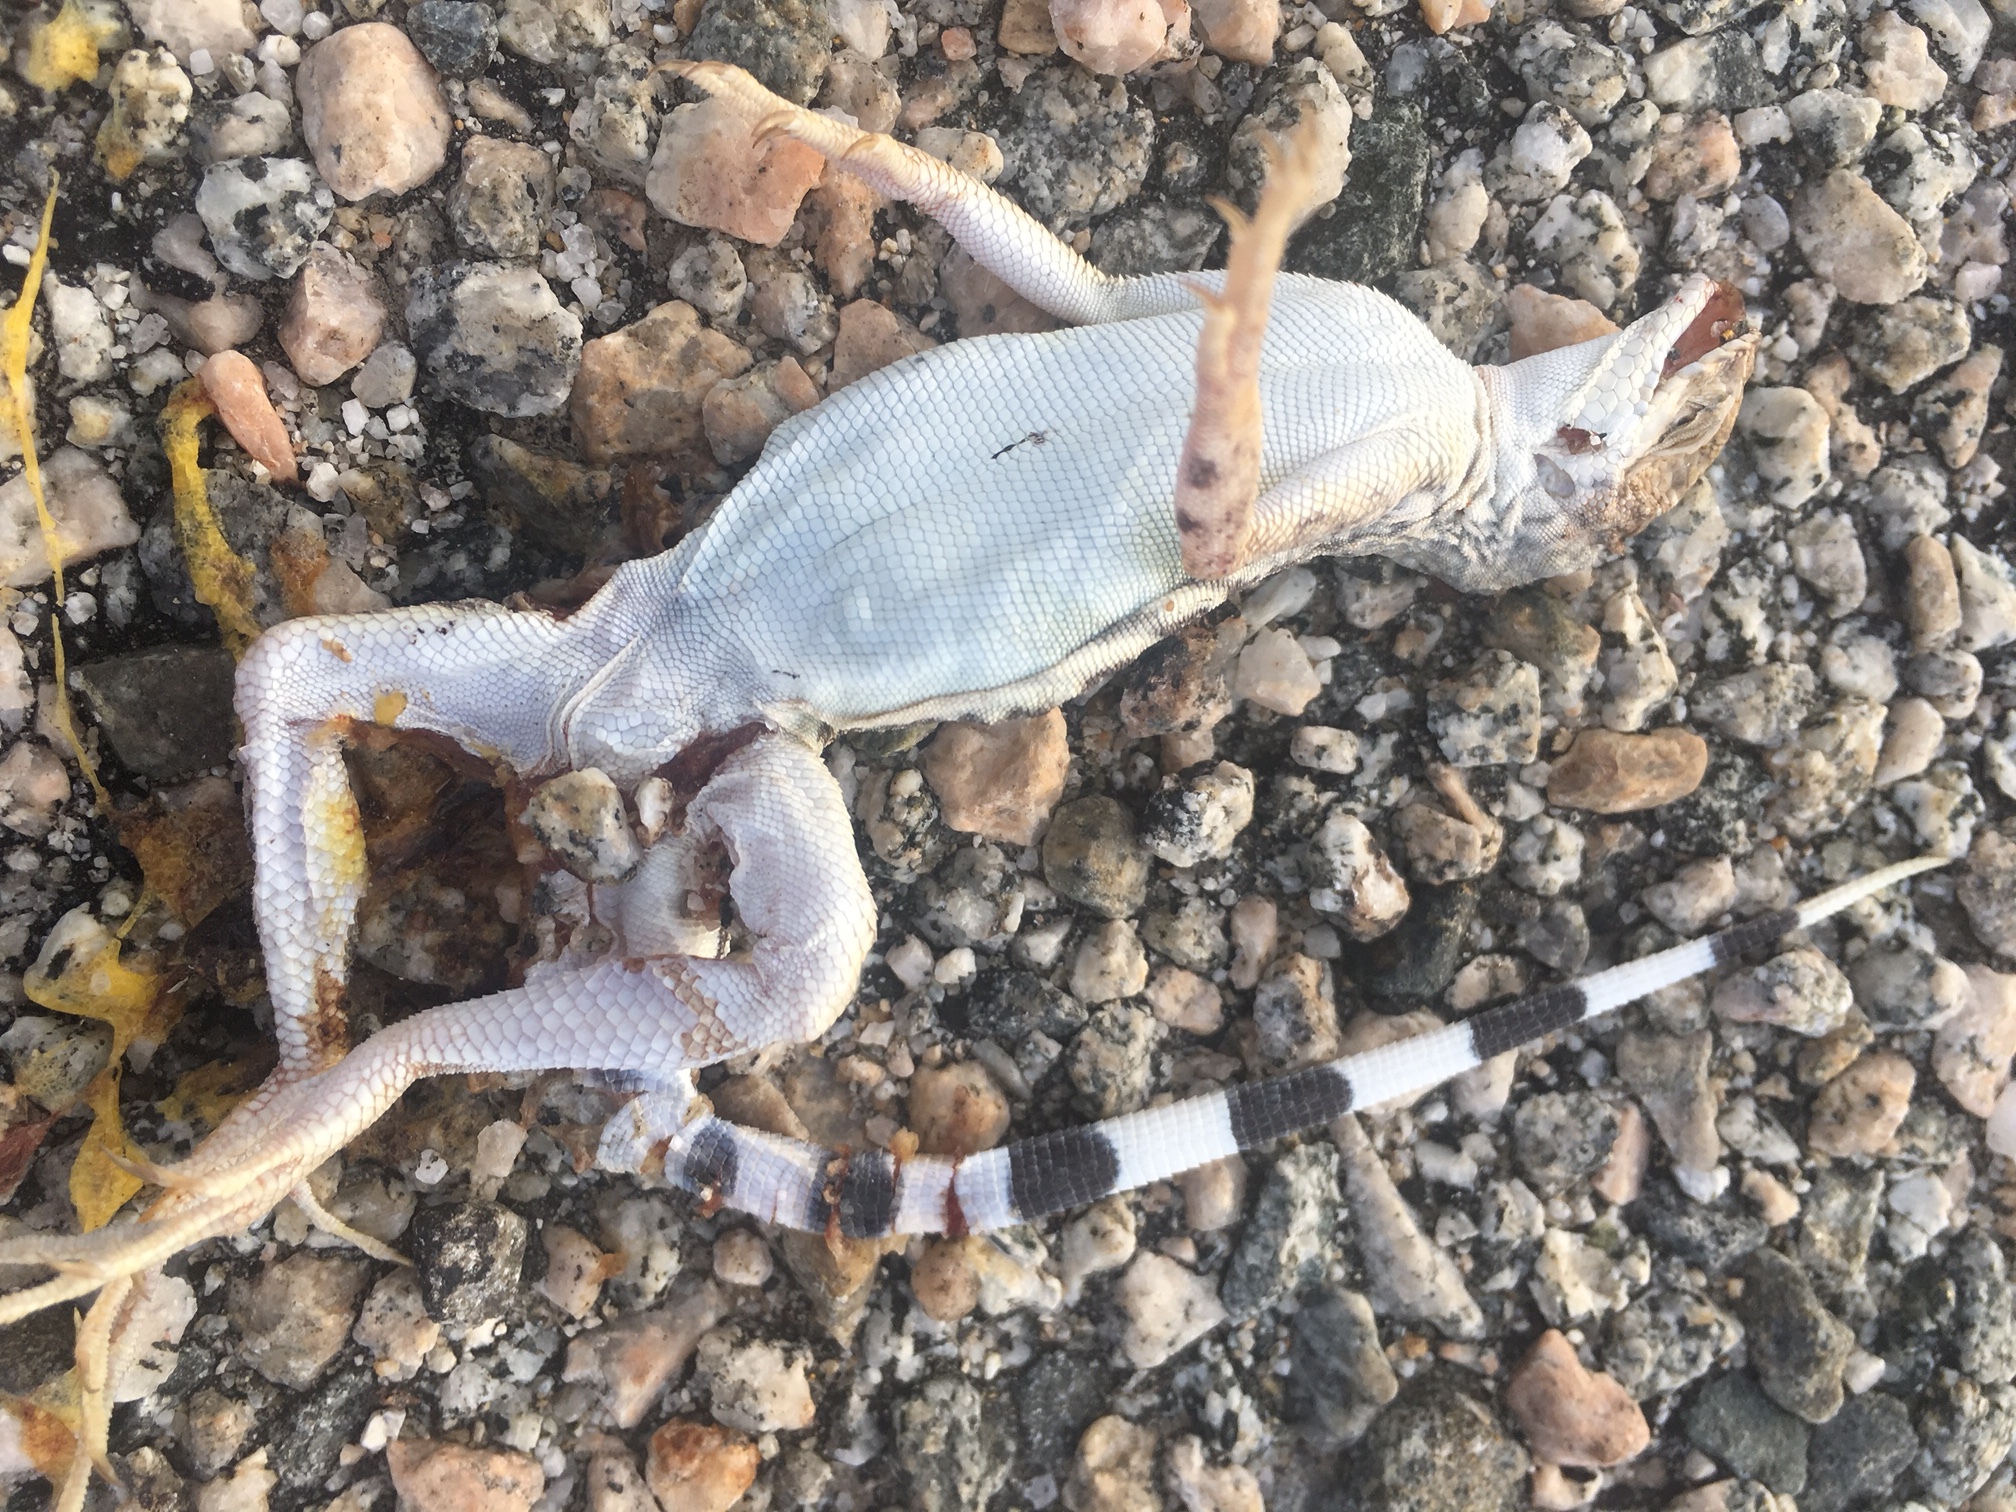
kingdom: Animalia
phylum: Chordata
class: Squamata
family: Phrynosomatidae
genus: Callisaurus
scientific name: Callisaurus draconoides
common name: Zebra-tailed lizard
